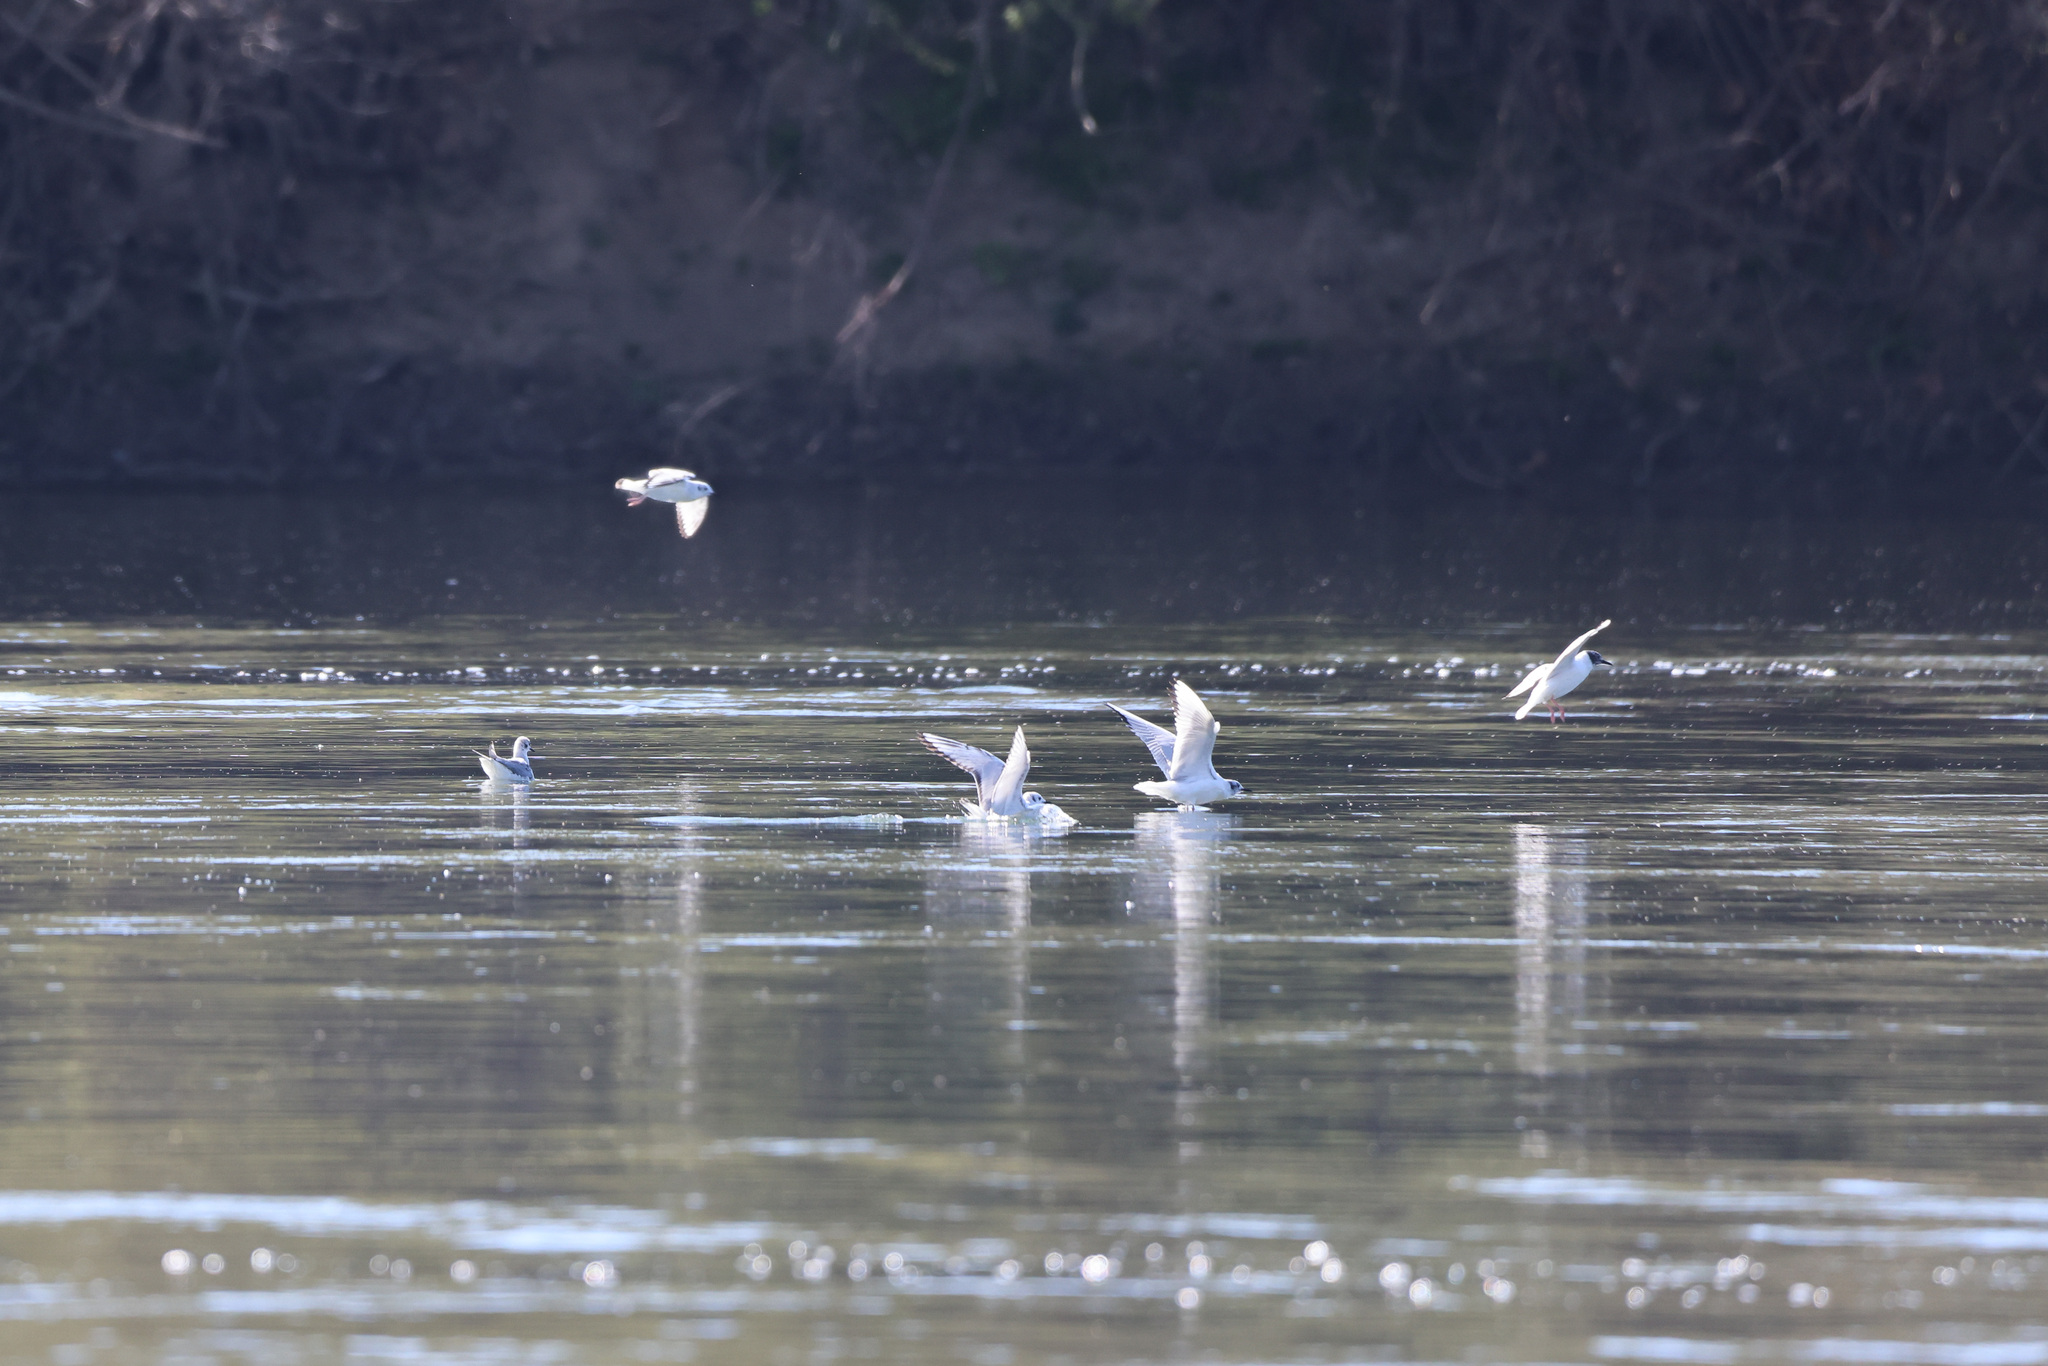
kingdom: Animalia
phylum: Chordata
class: Aves
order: Charadriiformes
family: Laridae
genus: Chroicocephalus
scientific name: Chroicocephalus philadelphia
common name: Bonaparte's gull
